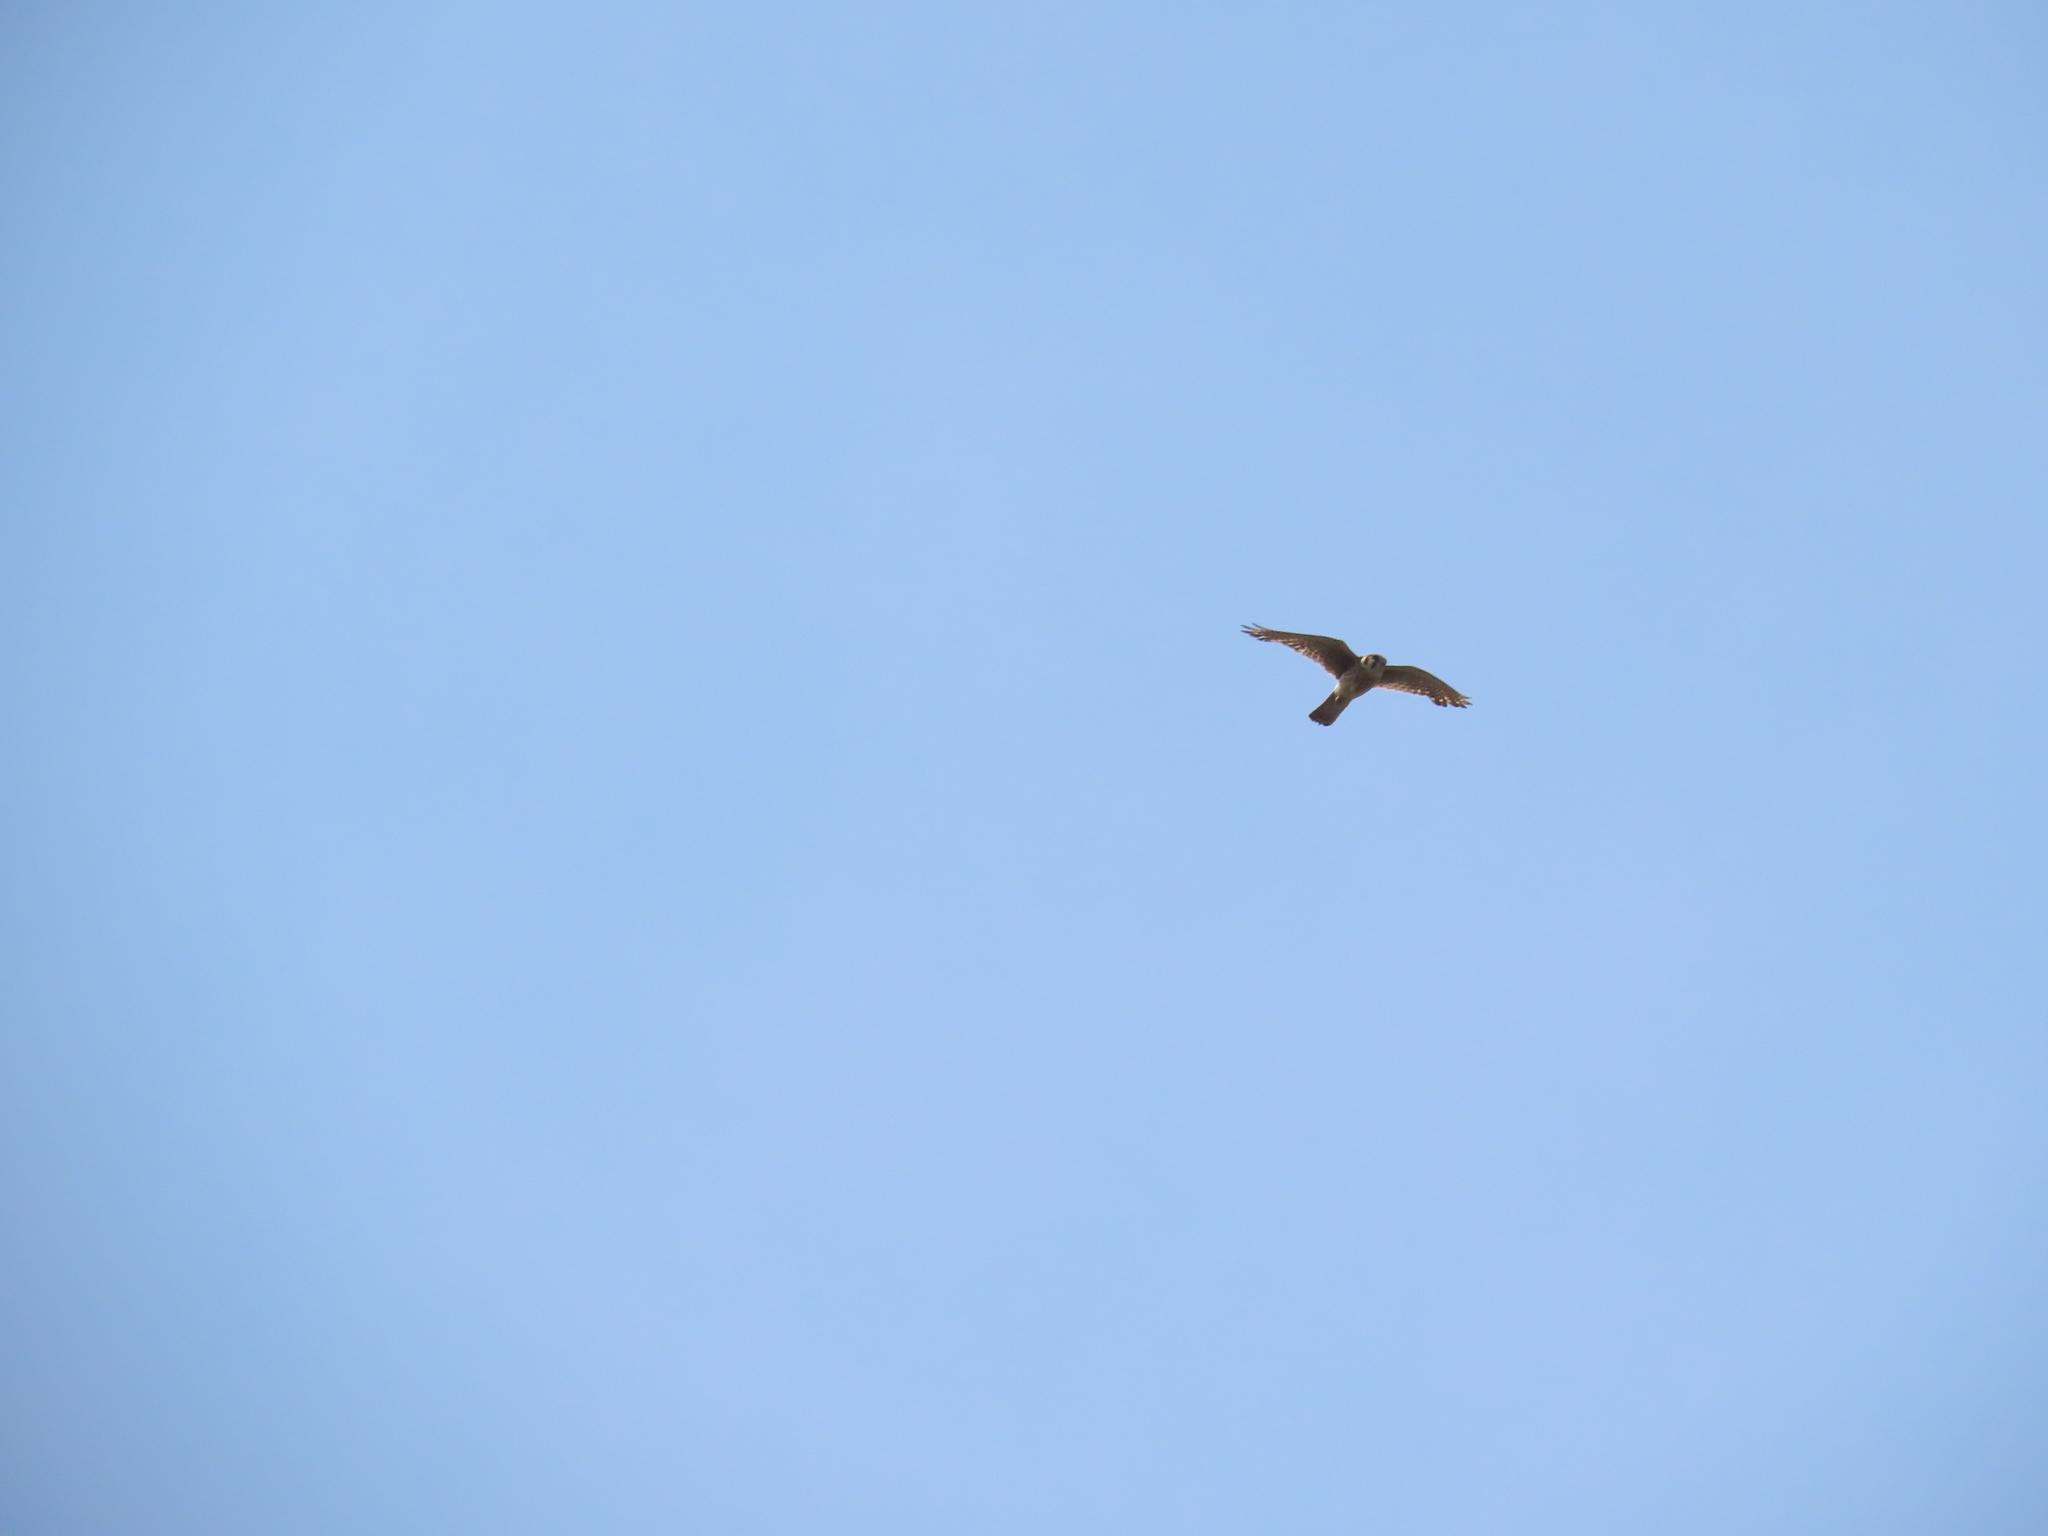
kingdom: Animalia
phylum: Chordata
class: Aves
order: Falconiformes
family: Falconidae
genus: Falco
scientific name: Falco sparverius
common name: American kestrel
